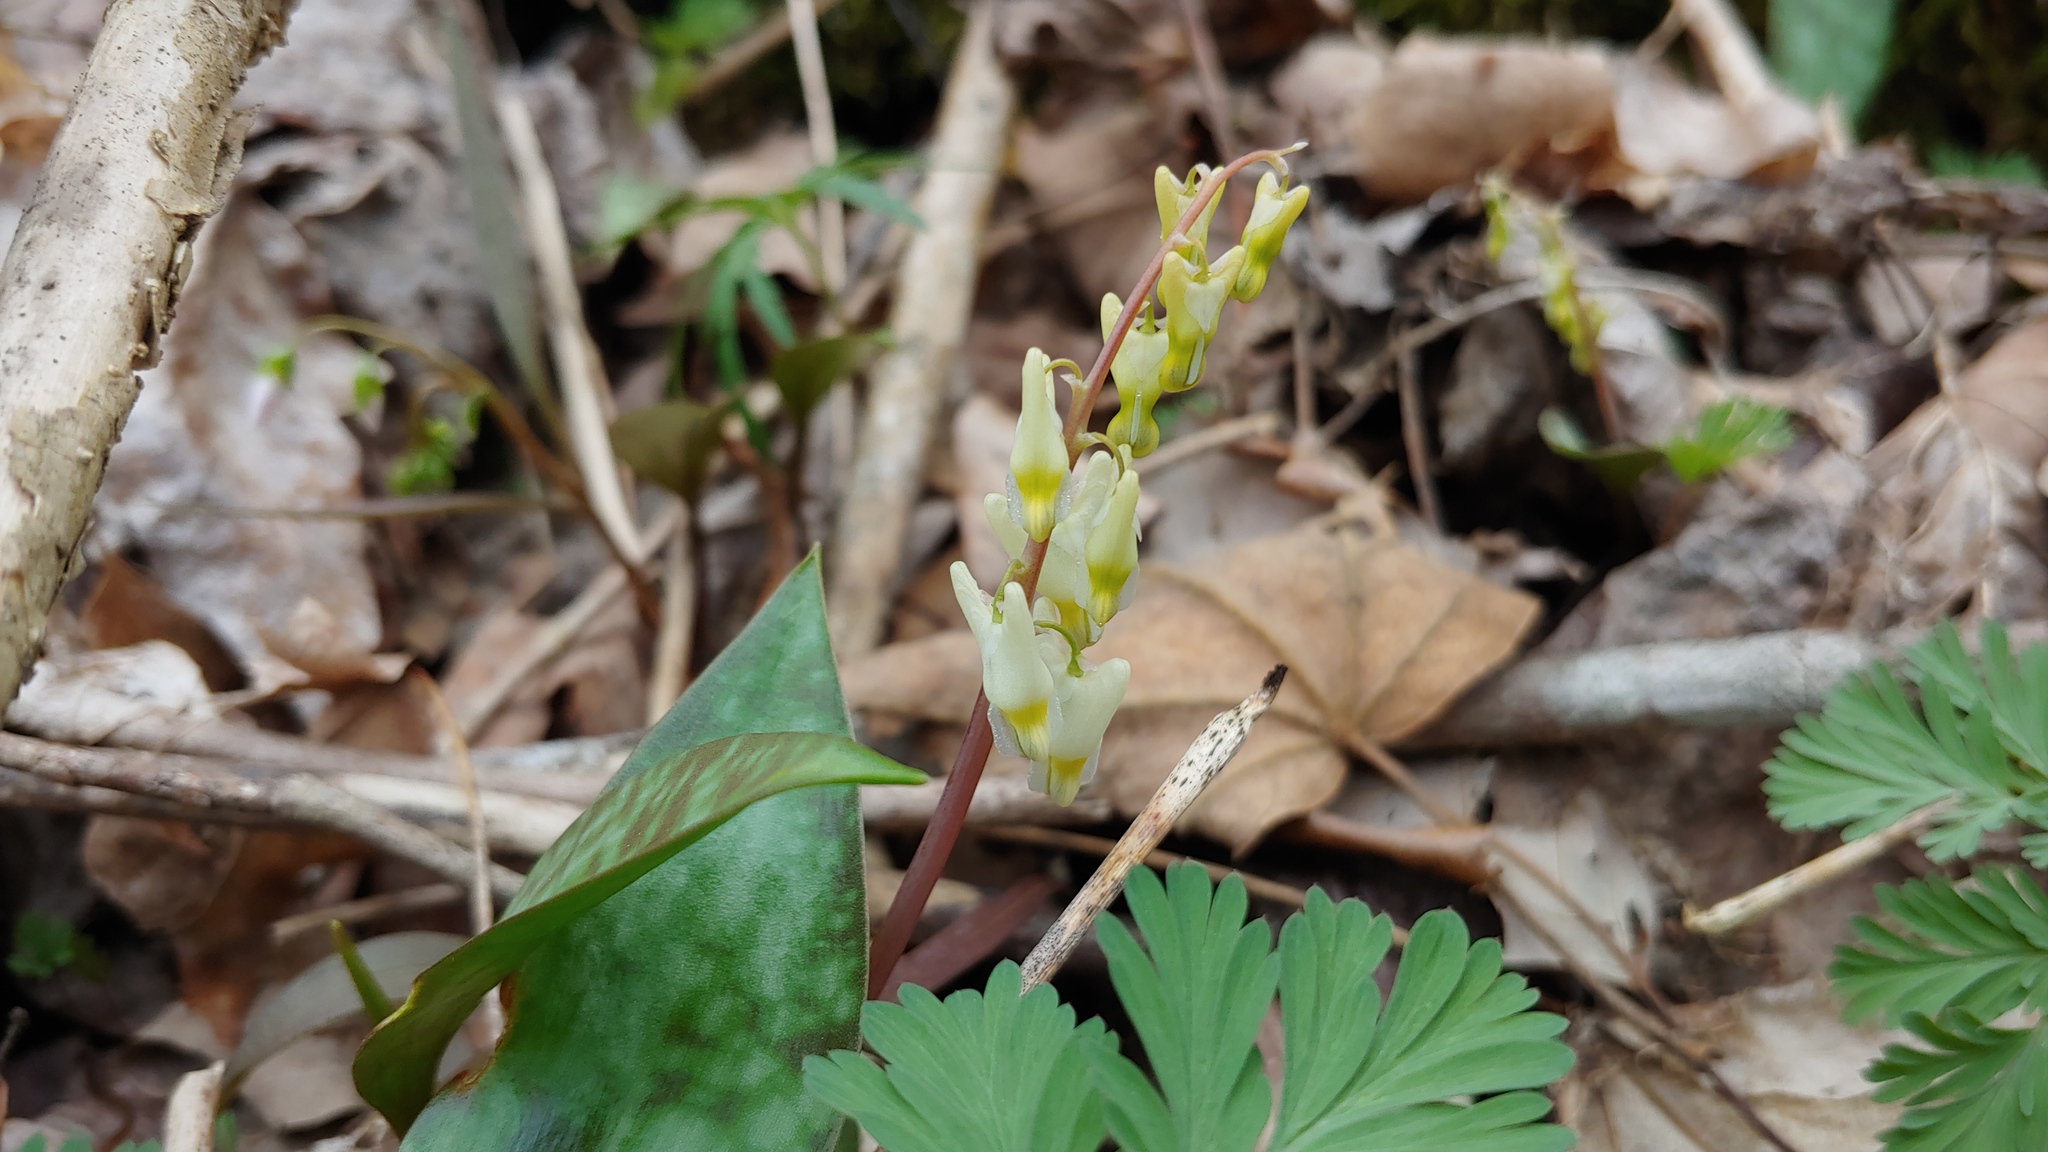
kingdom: Plantae
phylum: Tracheophyta
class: Magnoliopsida
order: Ranunculales
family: Papaveraceae
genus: Dicentra
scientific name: Dicentra cucullaria
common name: Dutchman's breeches
